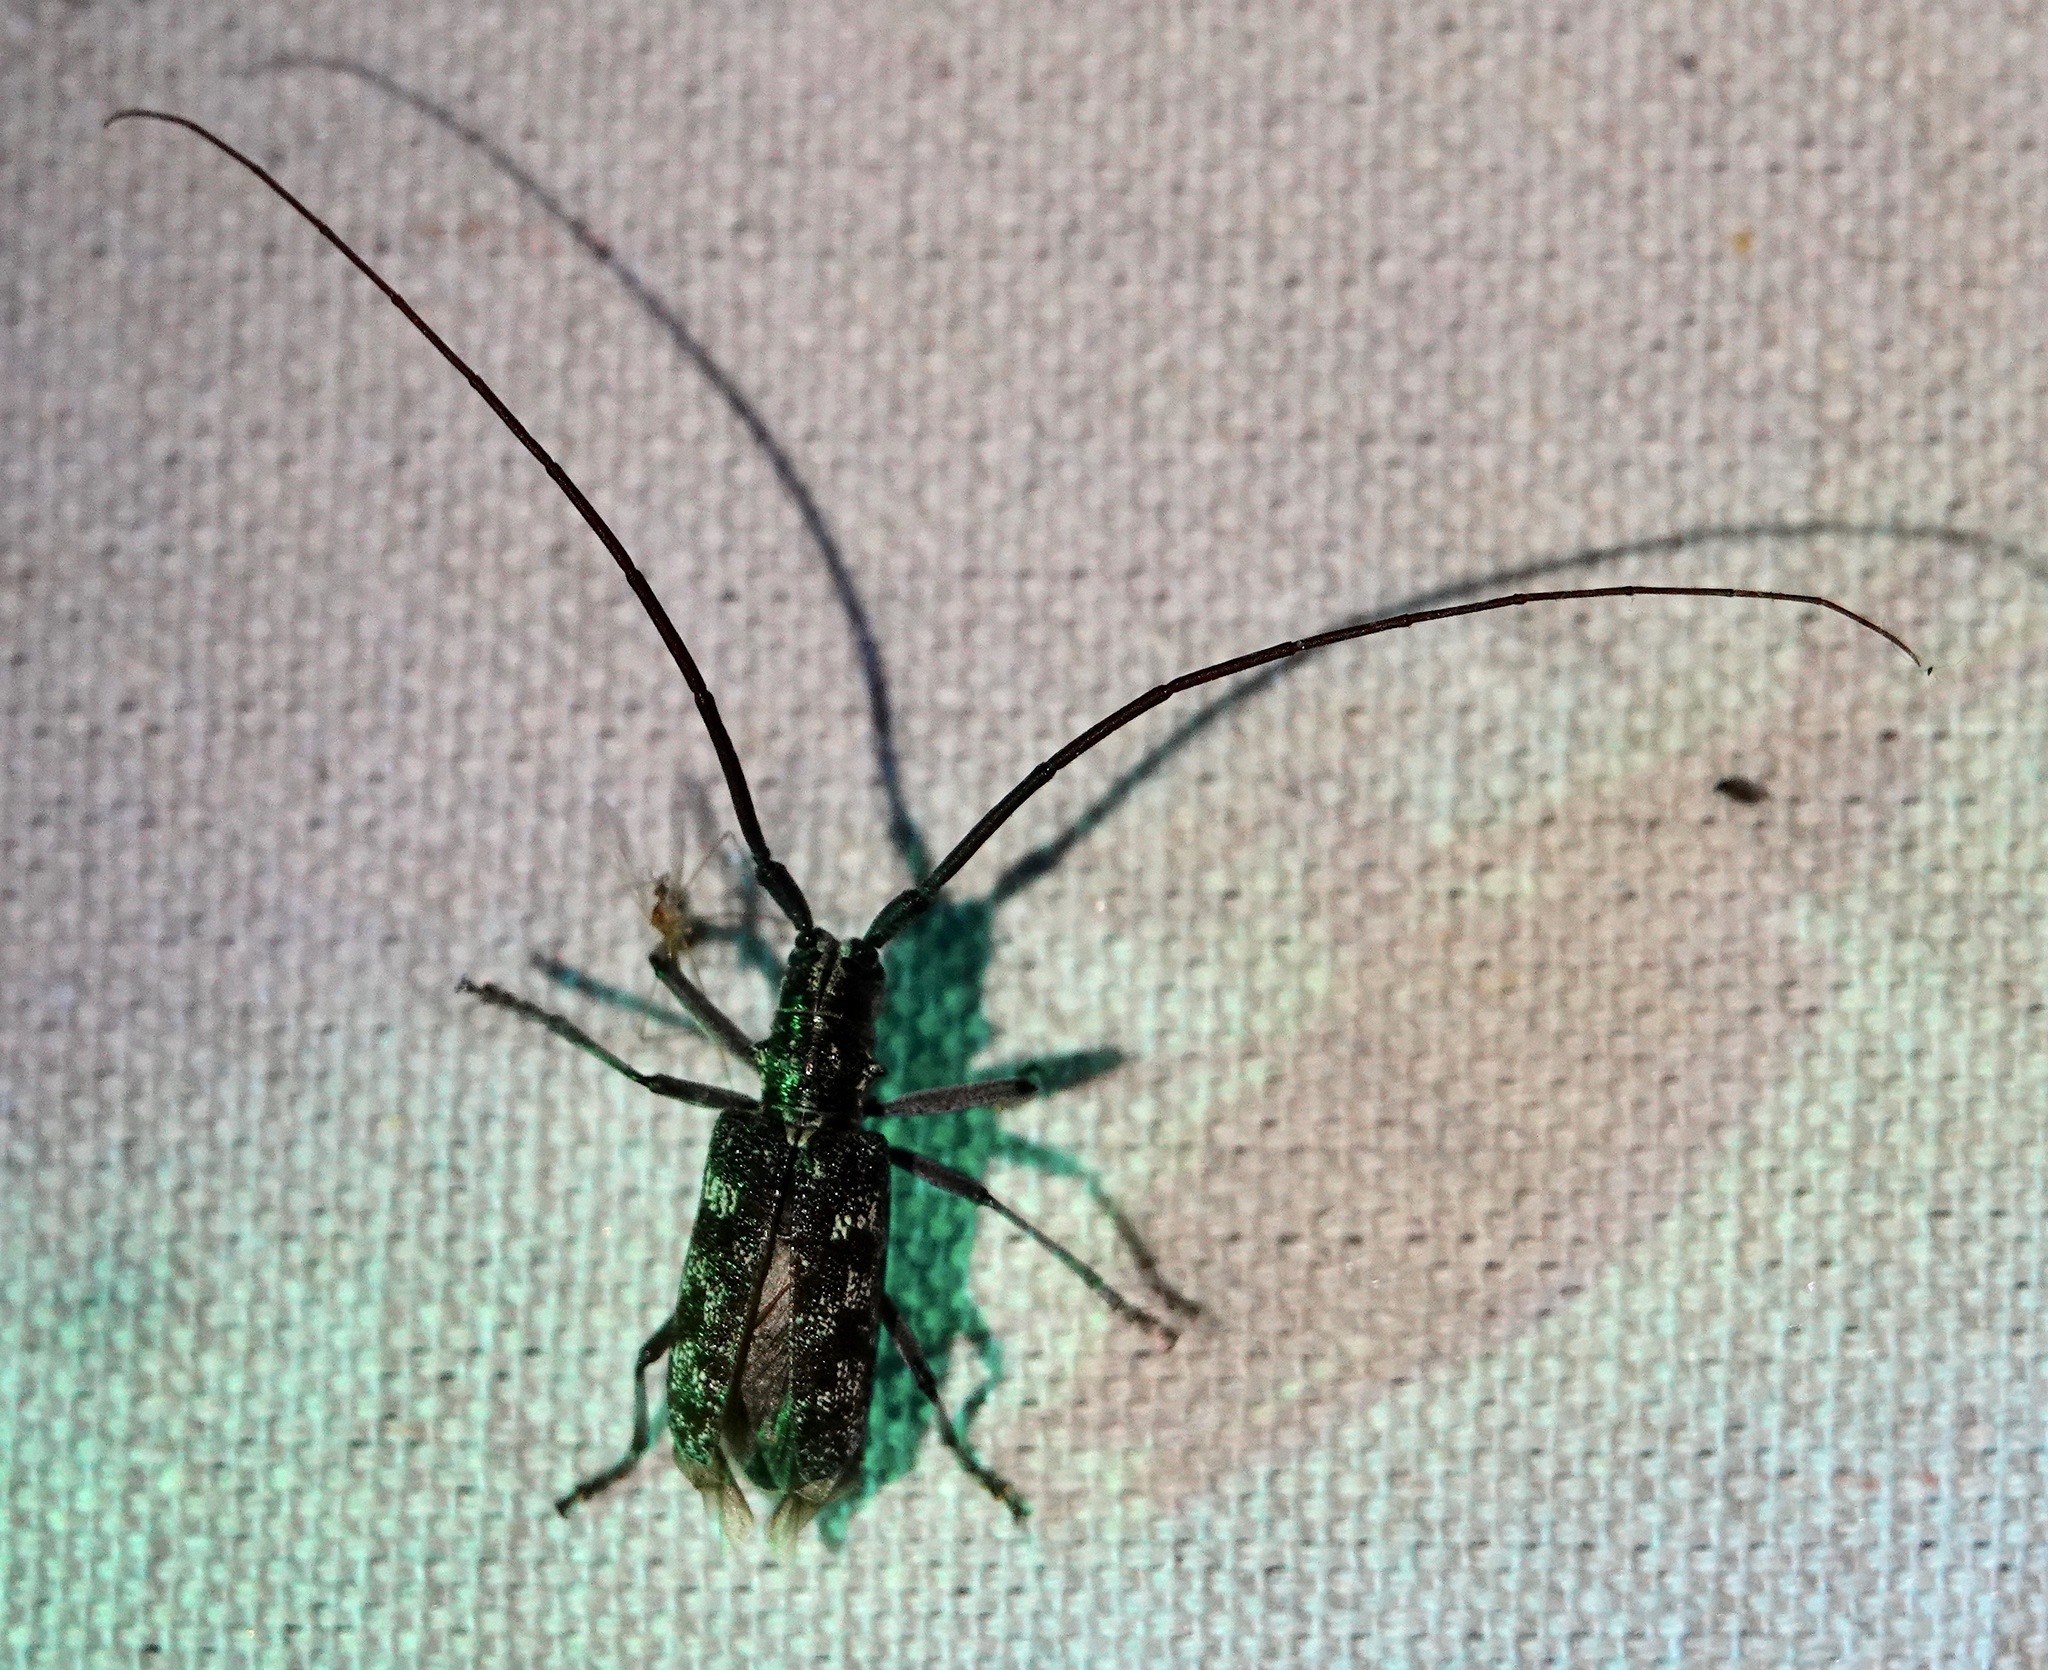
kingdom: Animalia
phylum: Arthropoda
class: Insecta
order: Coleoptera
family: Cerambycidae
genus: Monochamus
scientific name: Monochamus clamator
